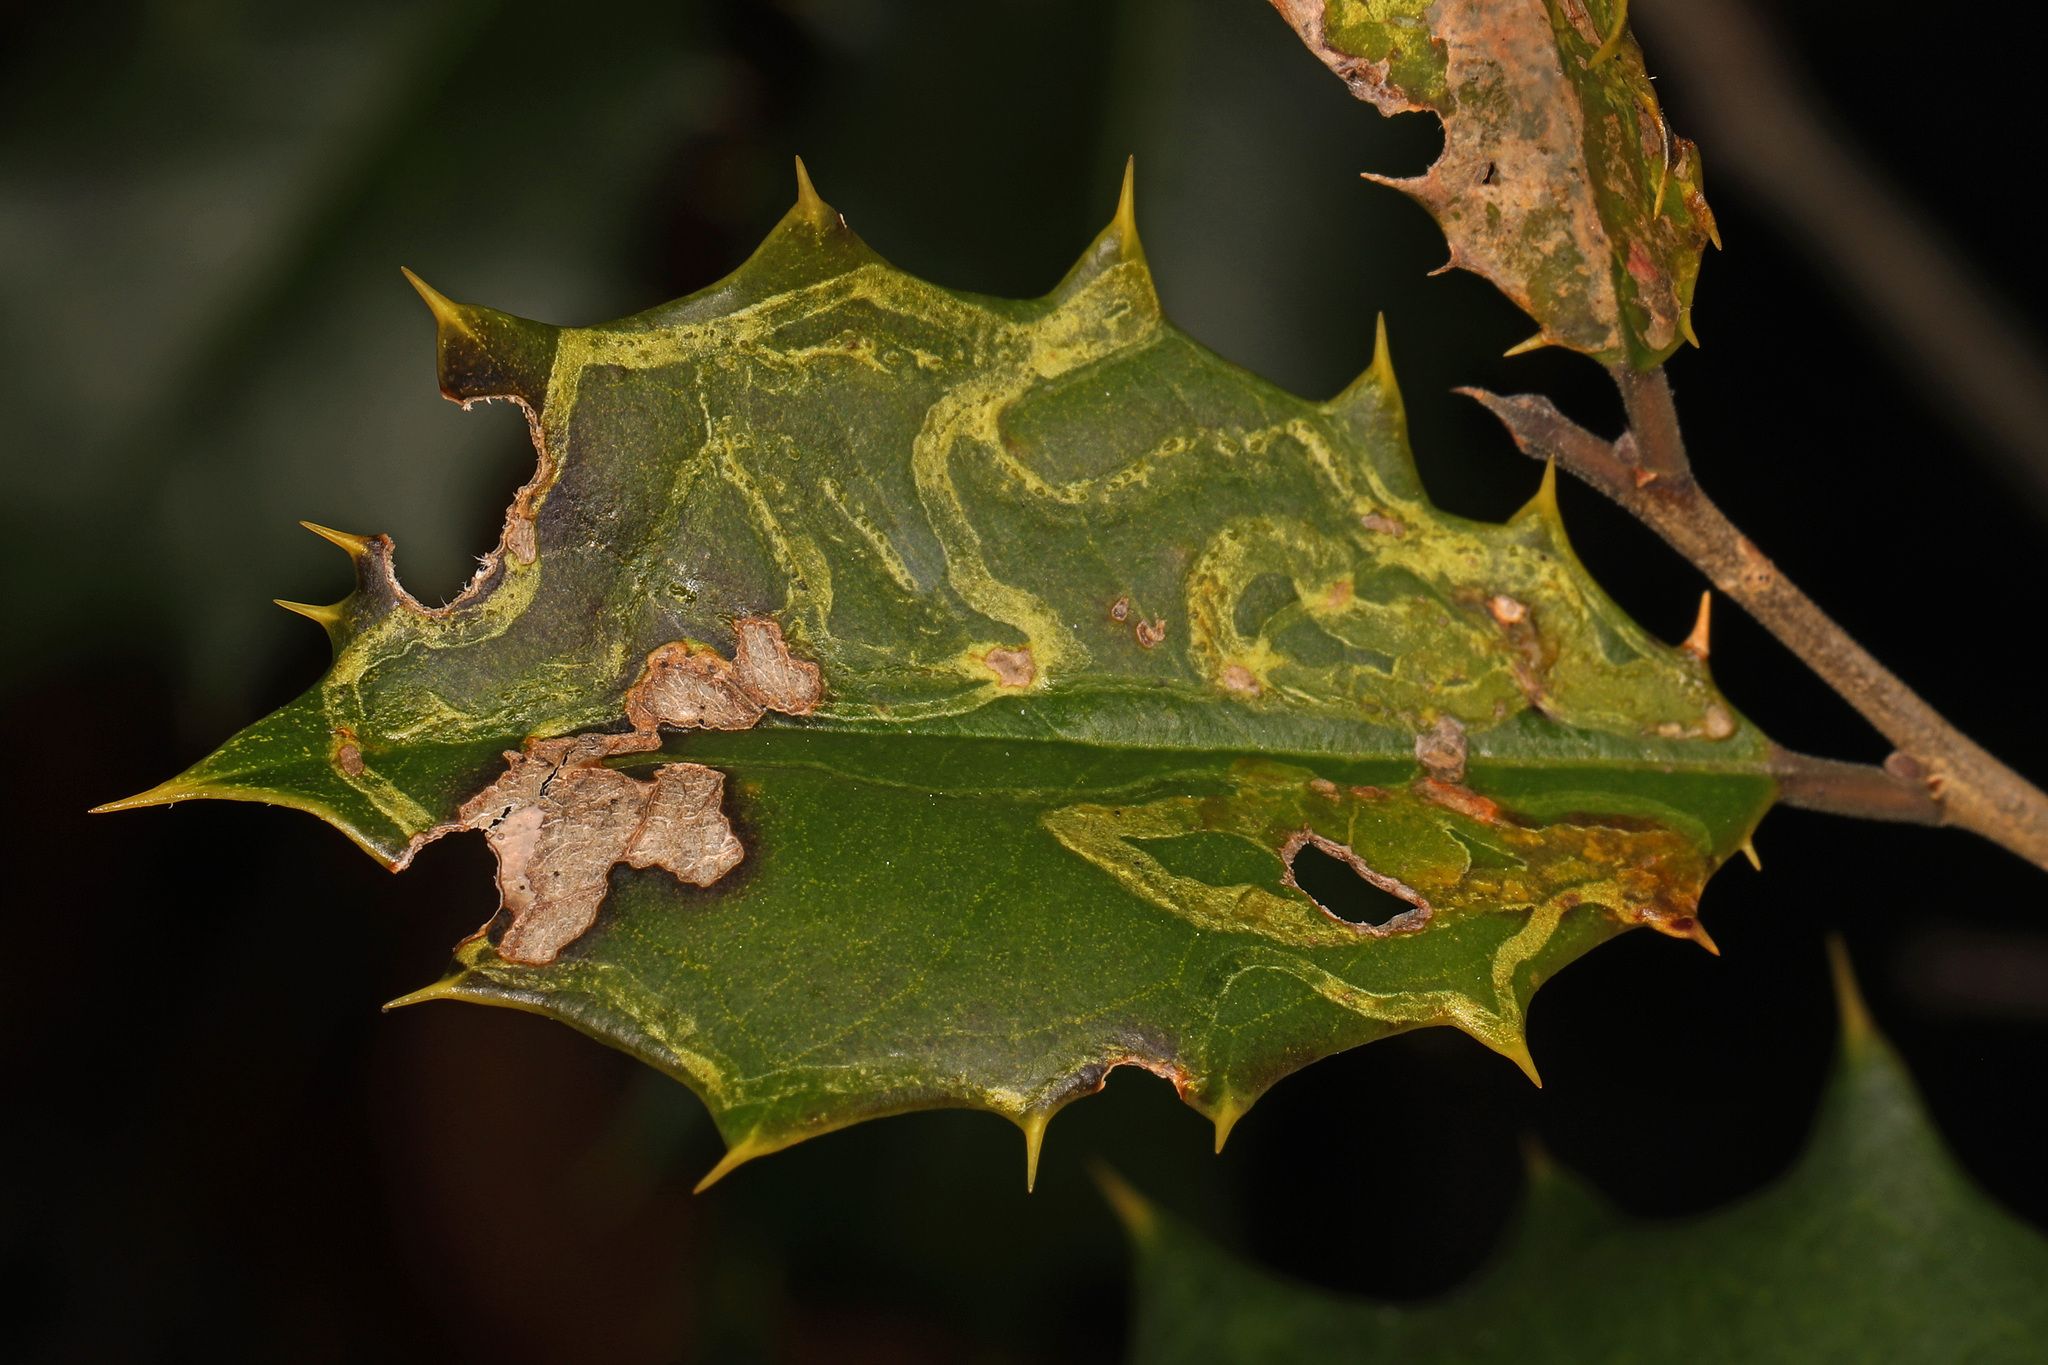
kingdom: Animalia
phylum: Arthropoda
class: Insecta
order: Diptera
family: Agromyzidae
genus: Phytomyza
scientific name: Phytomyza opacae
